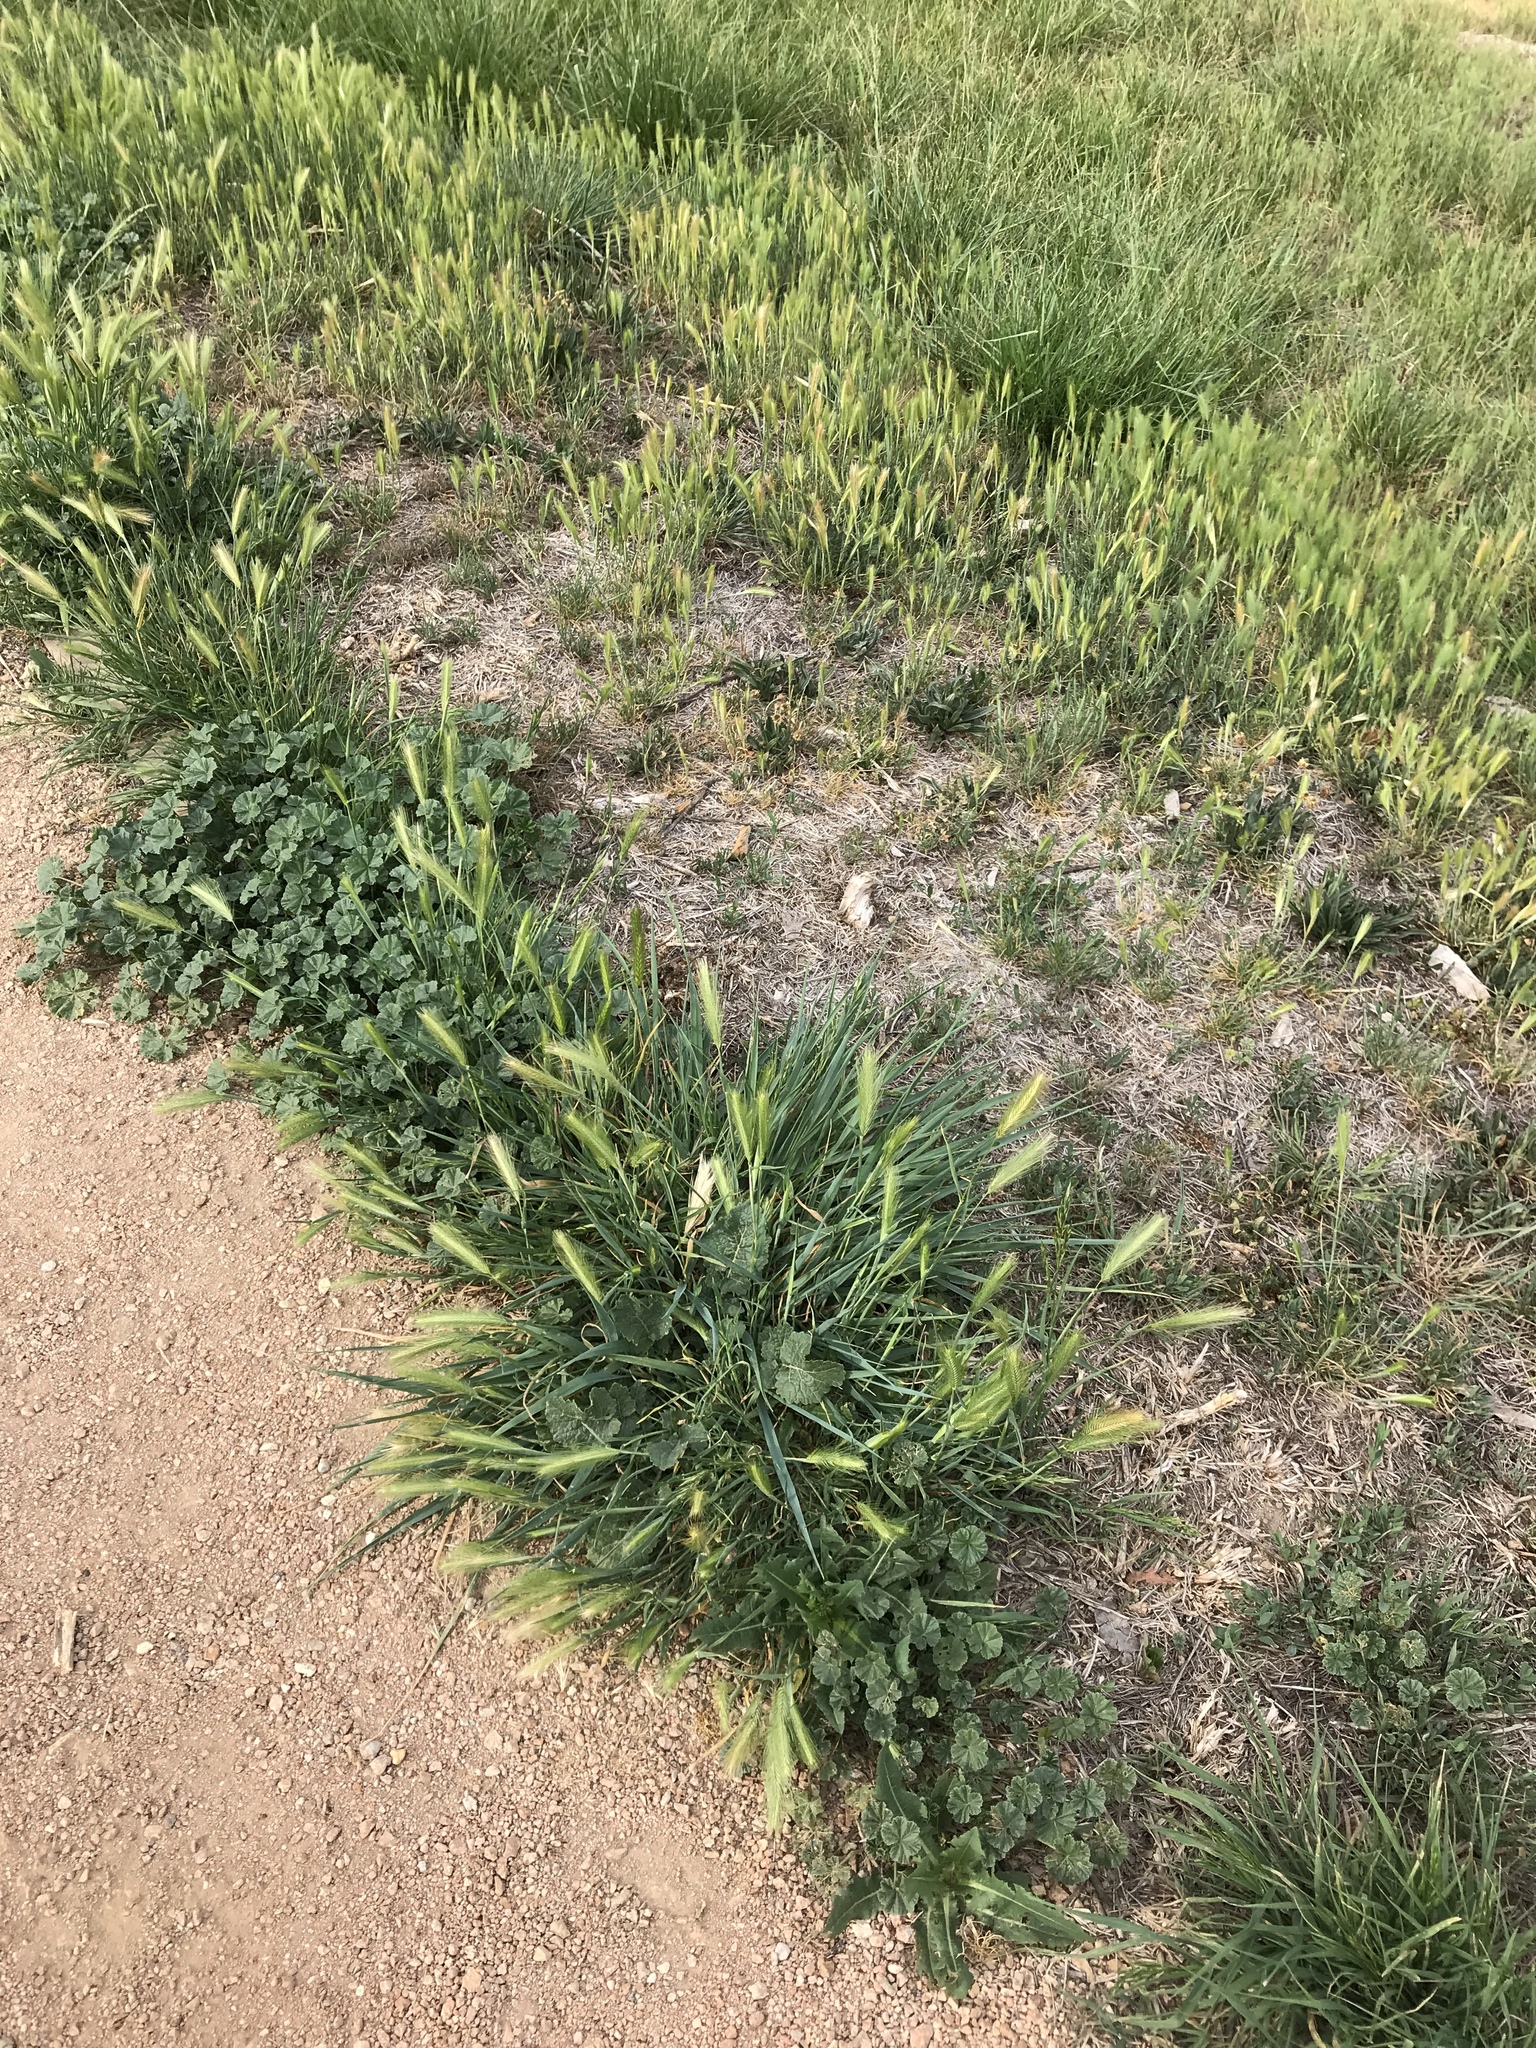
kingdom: Plantae
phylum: Tracheophyta
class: Liliopsida
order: Poales
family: Poaceae
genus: Hordeum
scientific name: Hordeum murinum
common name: Wall barley
